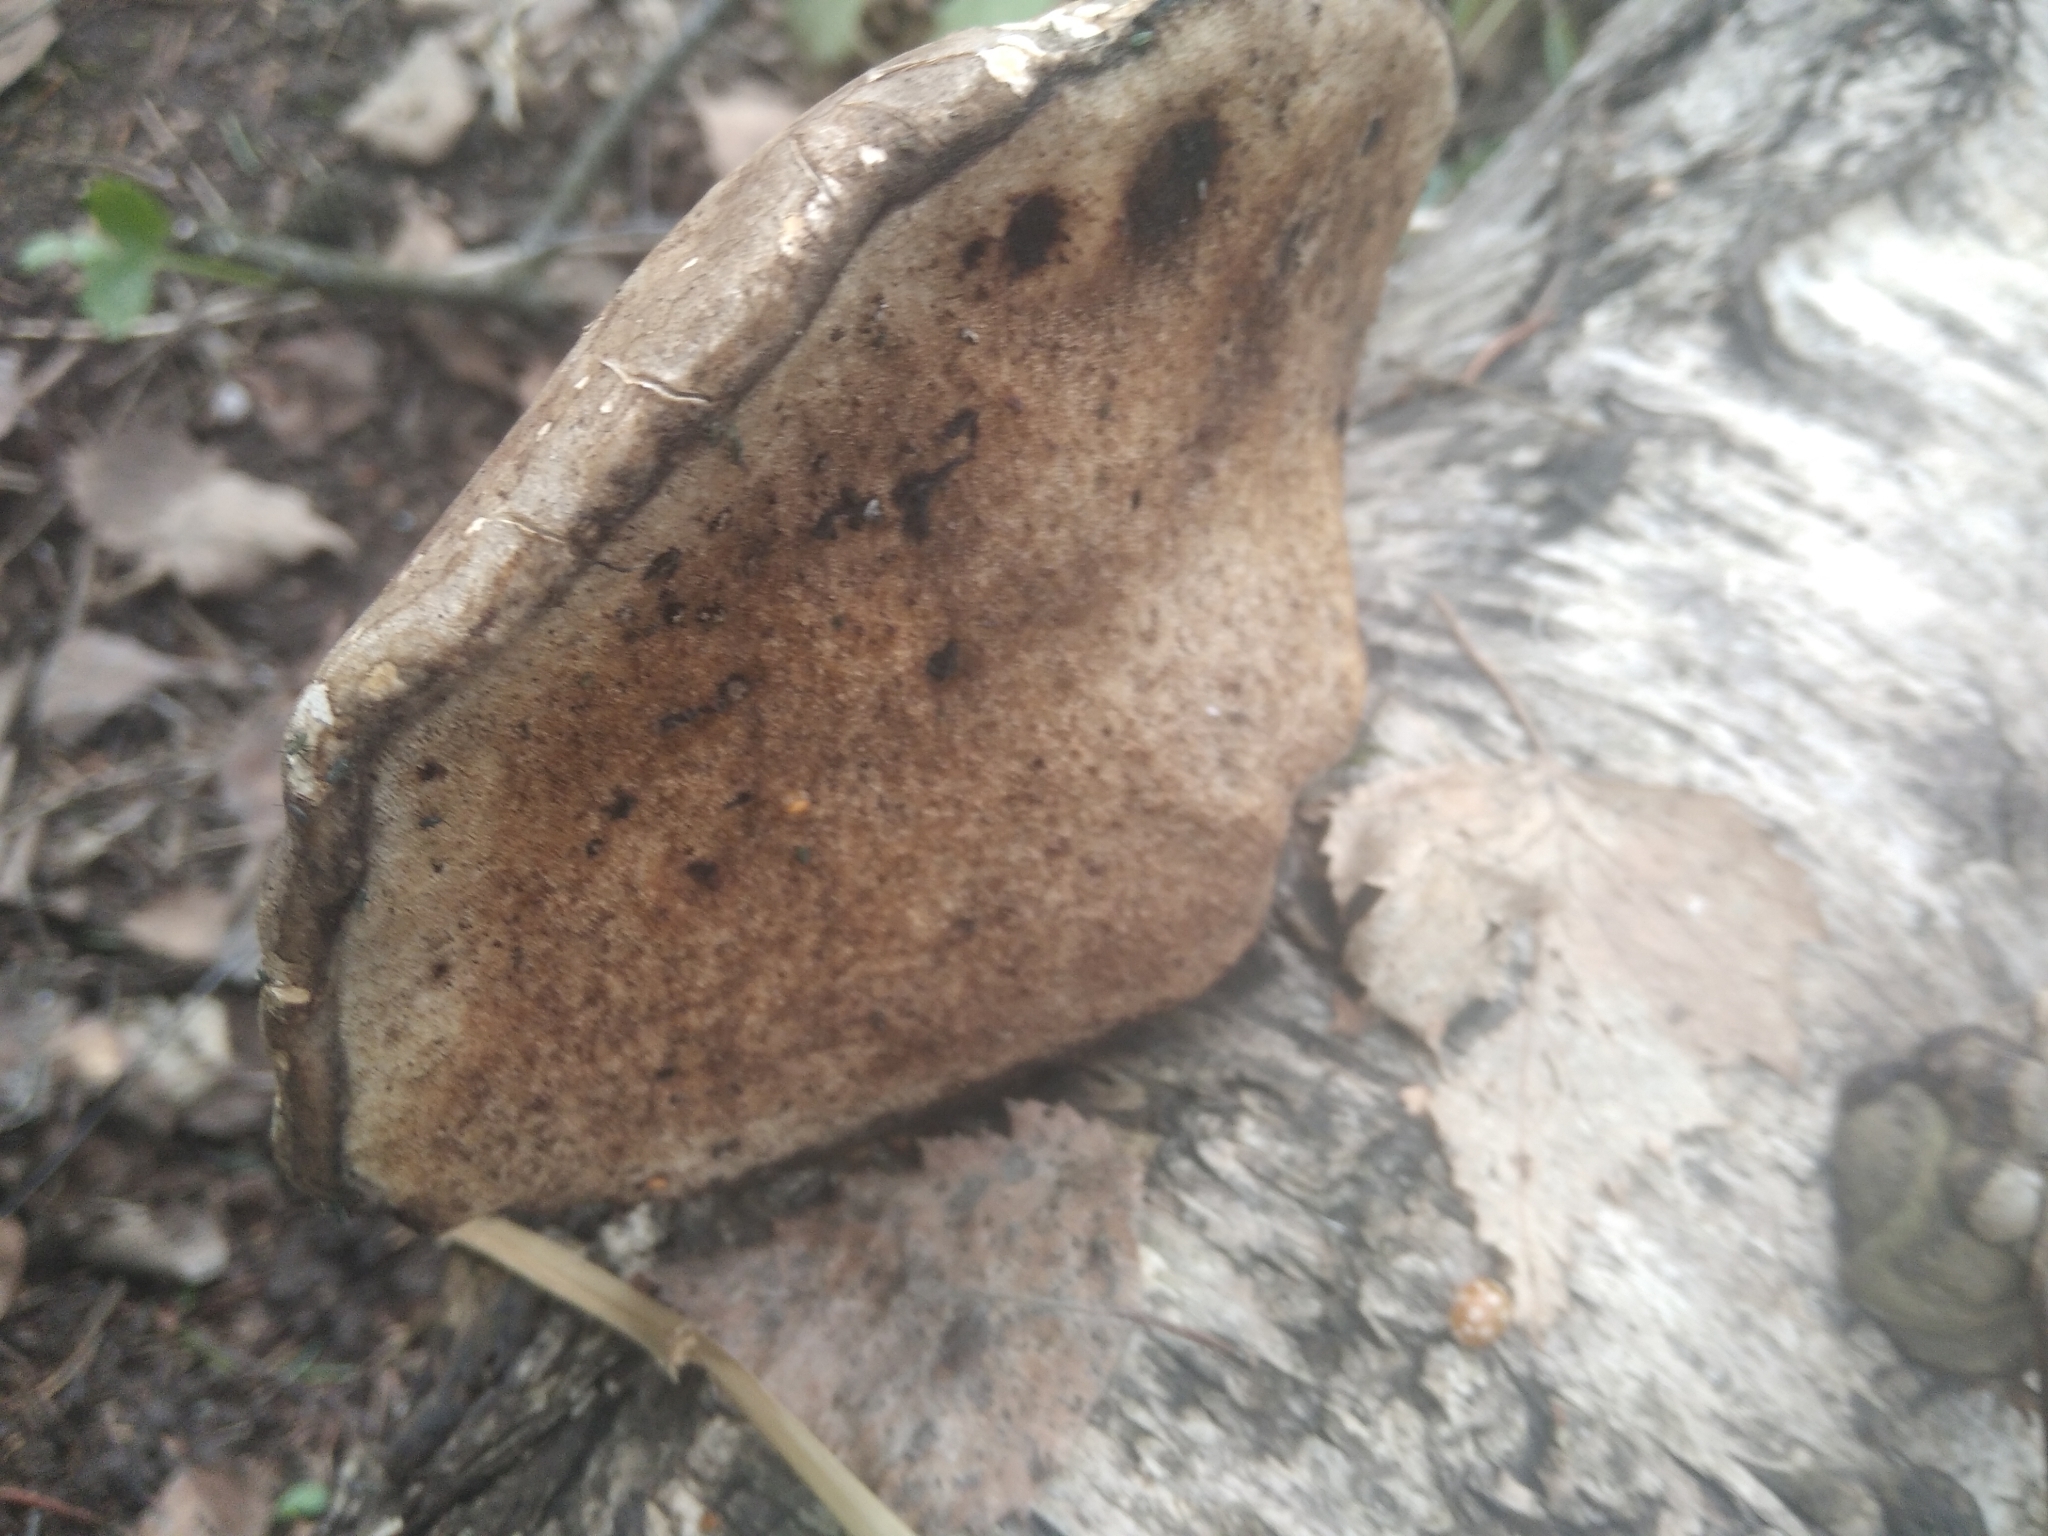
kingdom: Fungi
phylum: Basidiomycota
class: Agaricomycetes
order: Polyporales
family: Fomitopsidaceae
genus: Fomitopsis
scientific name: Fomitopsis betulina
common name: Birch polypore
